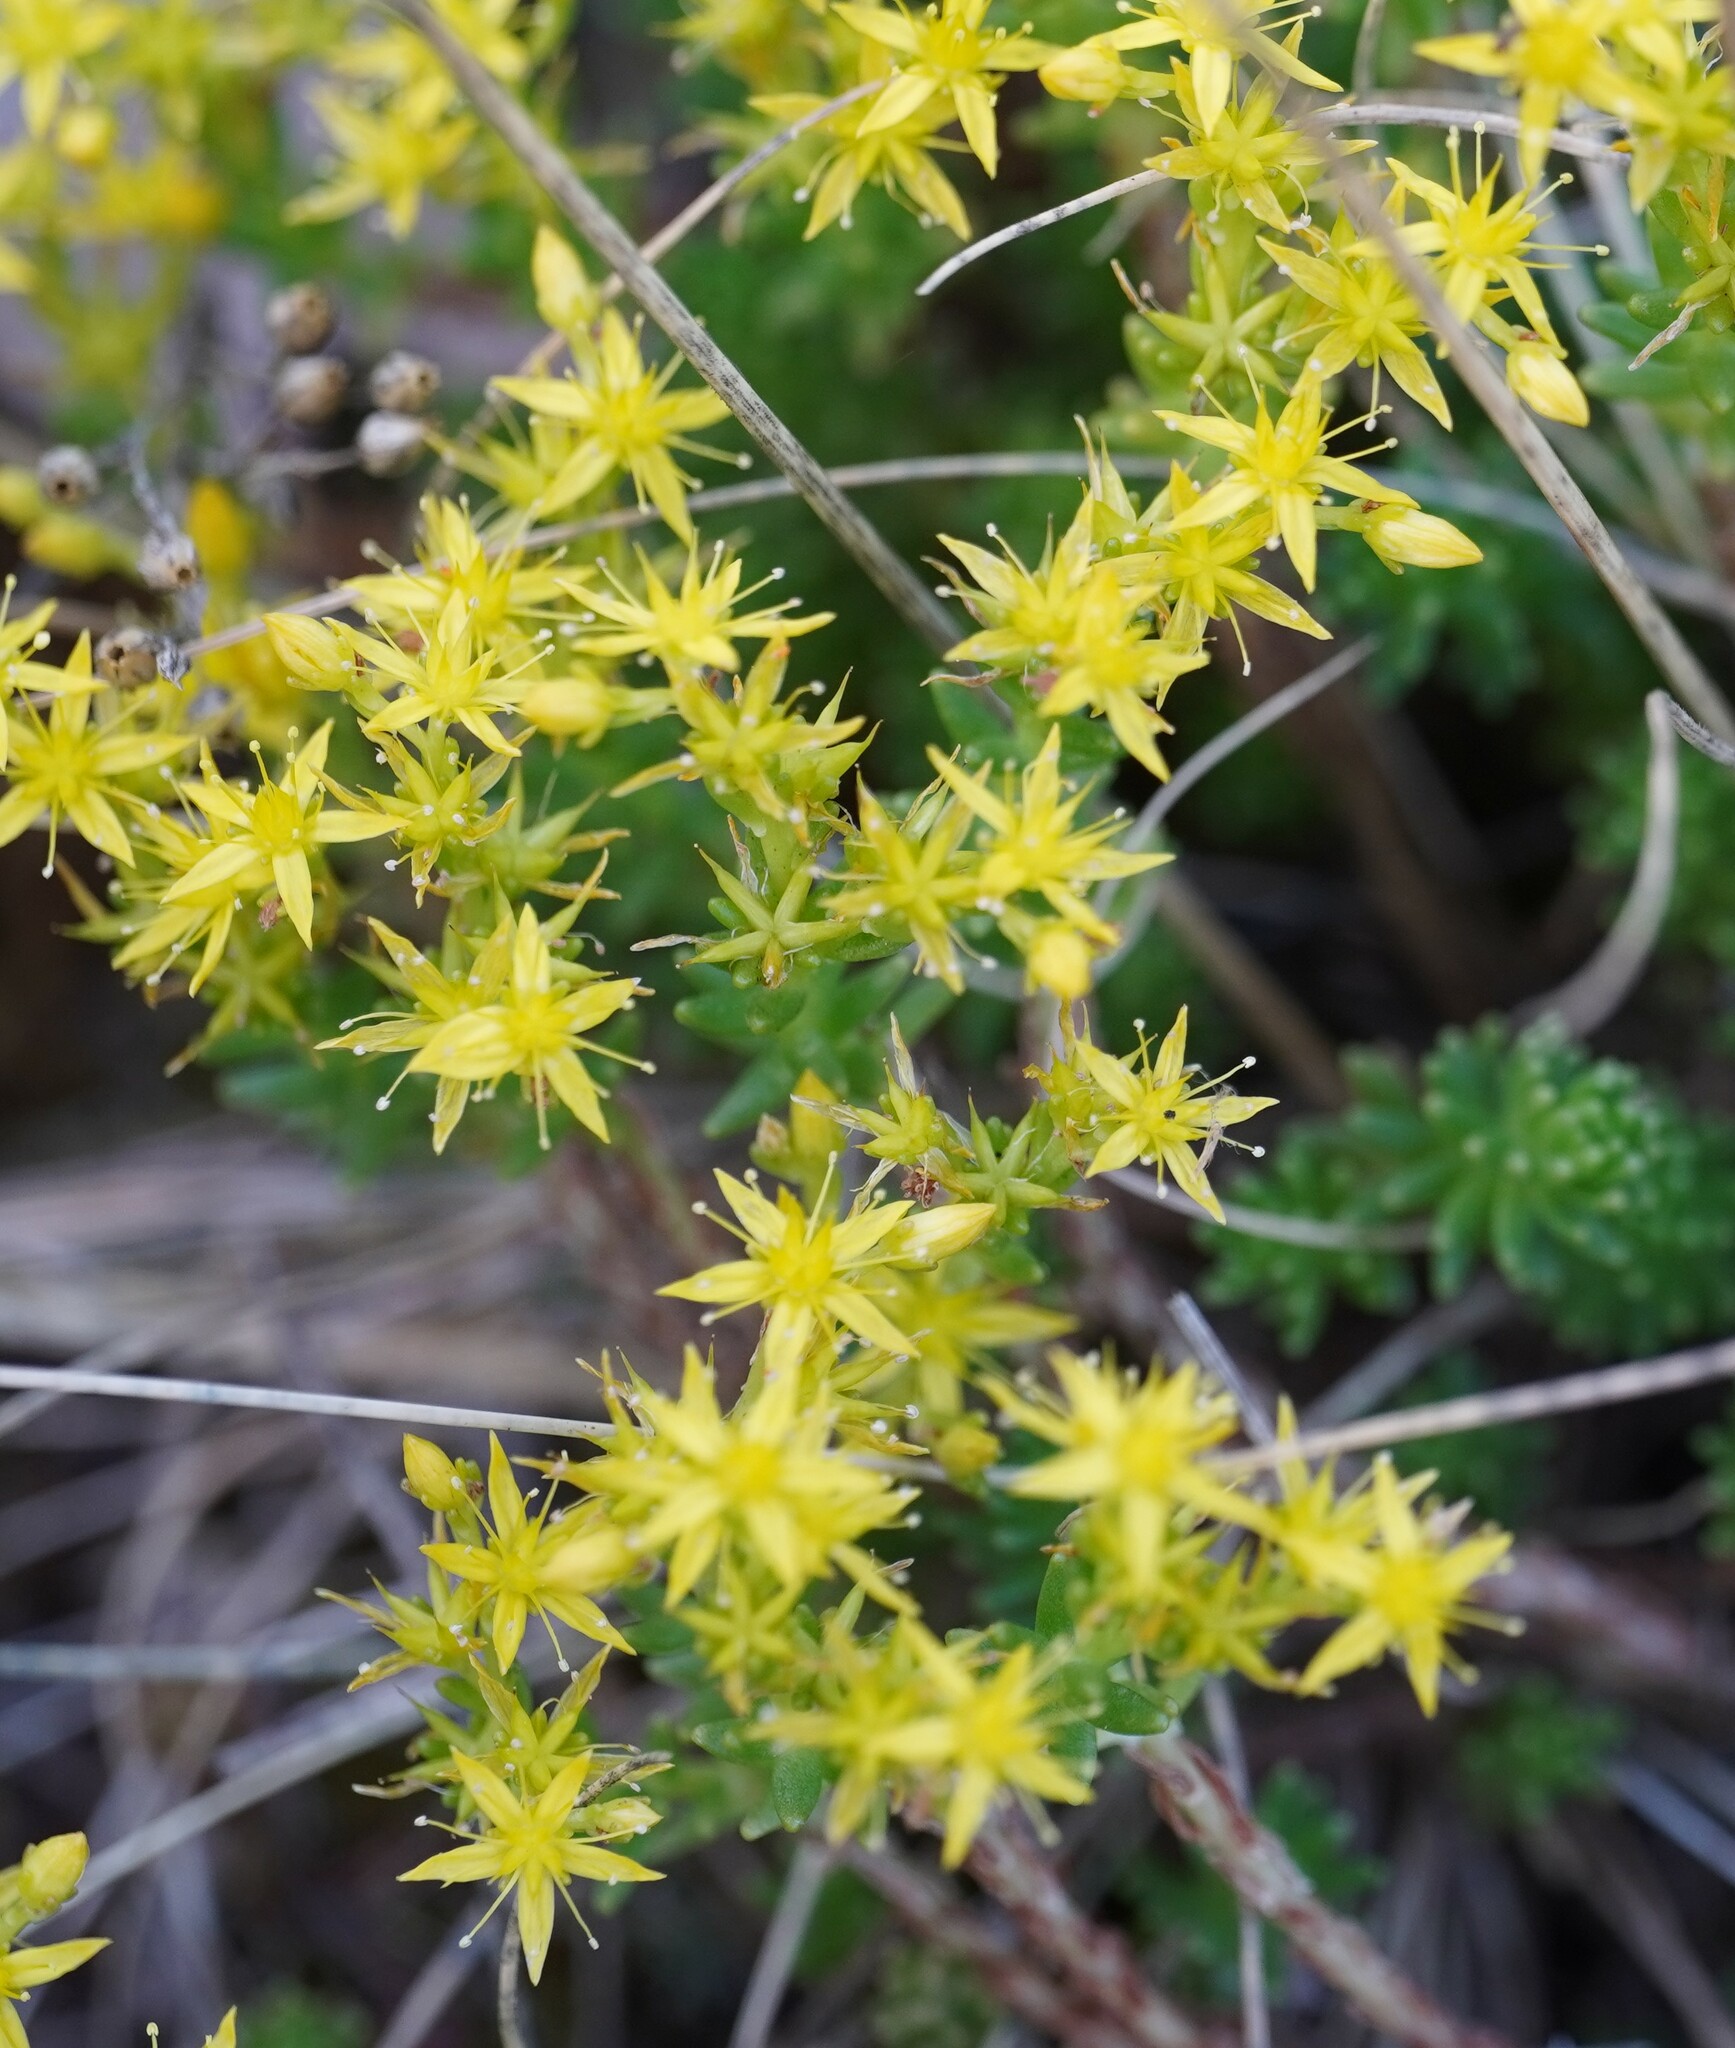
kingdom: Plantae
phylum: Tracheophyta
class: Magnoliopsida
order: Saxifragales
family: Crassulaceae
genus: Sedum
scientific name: Sedum sexangulare
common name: Tasteless stonecrop
